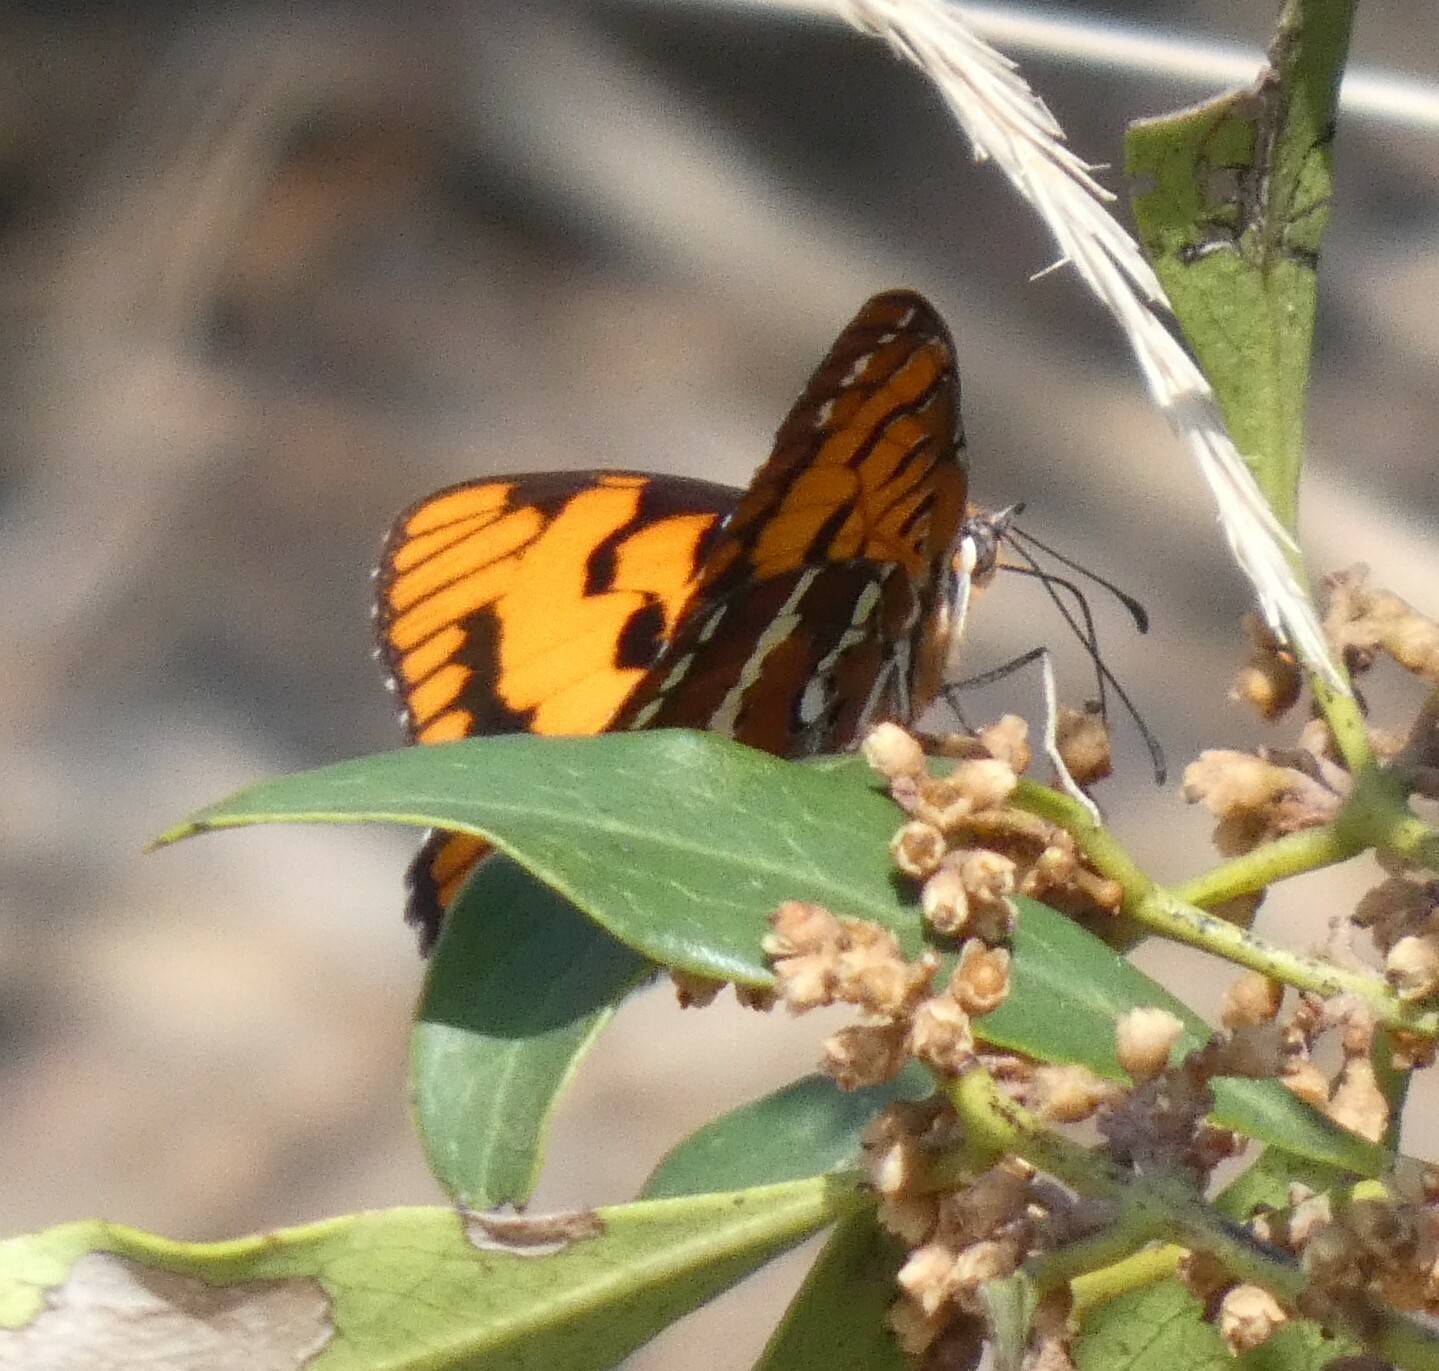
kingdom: Animalia
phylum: Arthropoda
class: Insecta
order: Lepidoptera
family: Nymphalidae
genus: Byblia
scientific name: Byblia ilithyia
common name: Spotted joker
